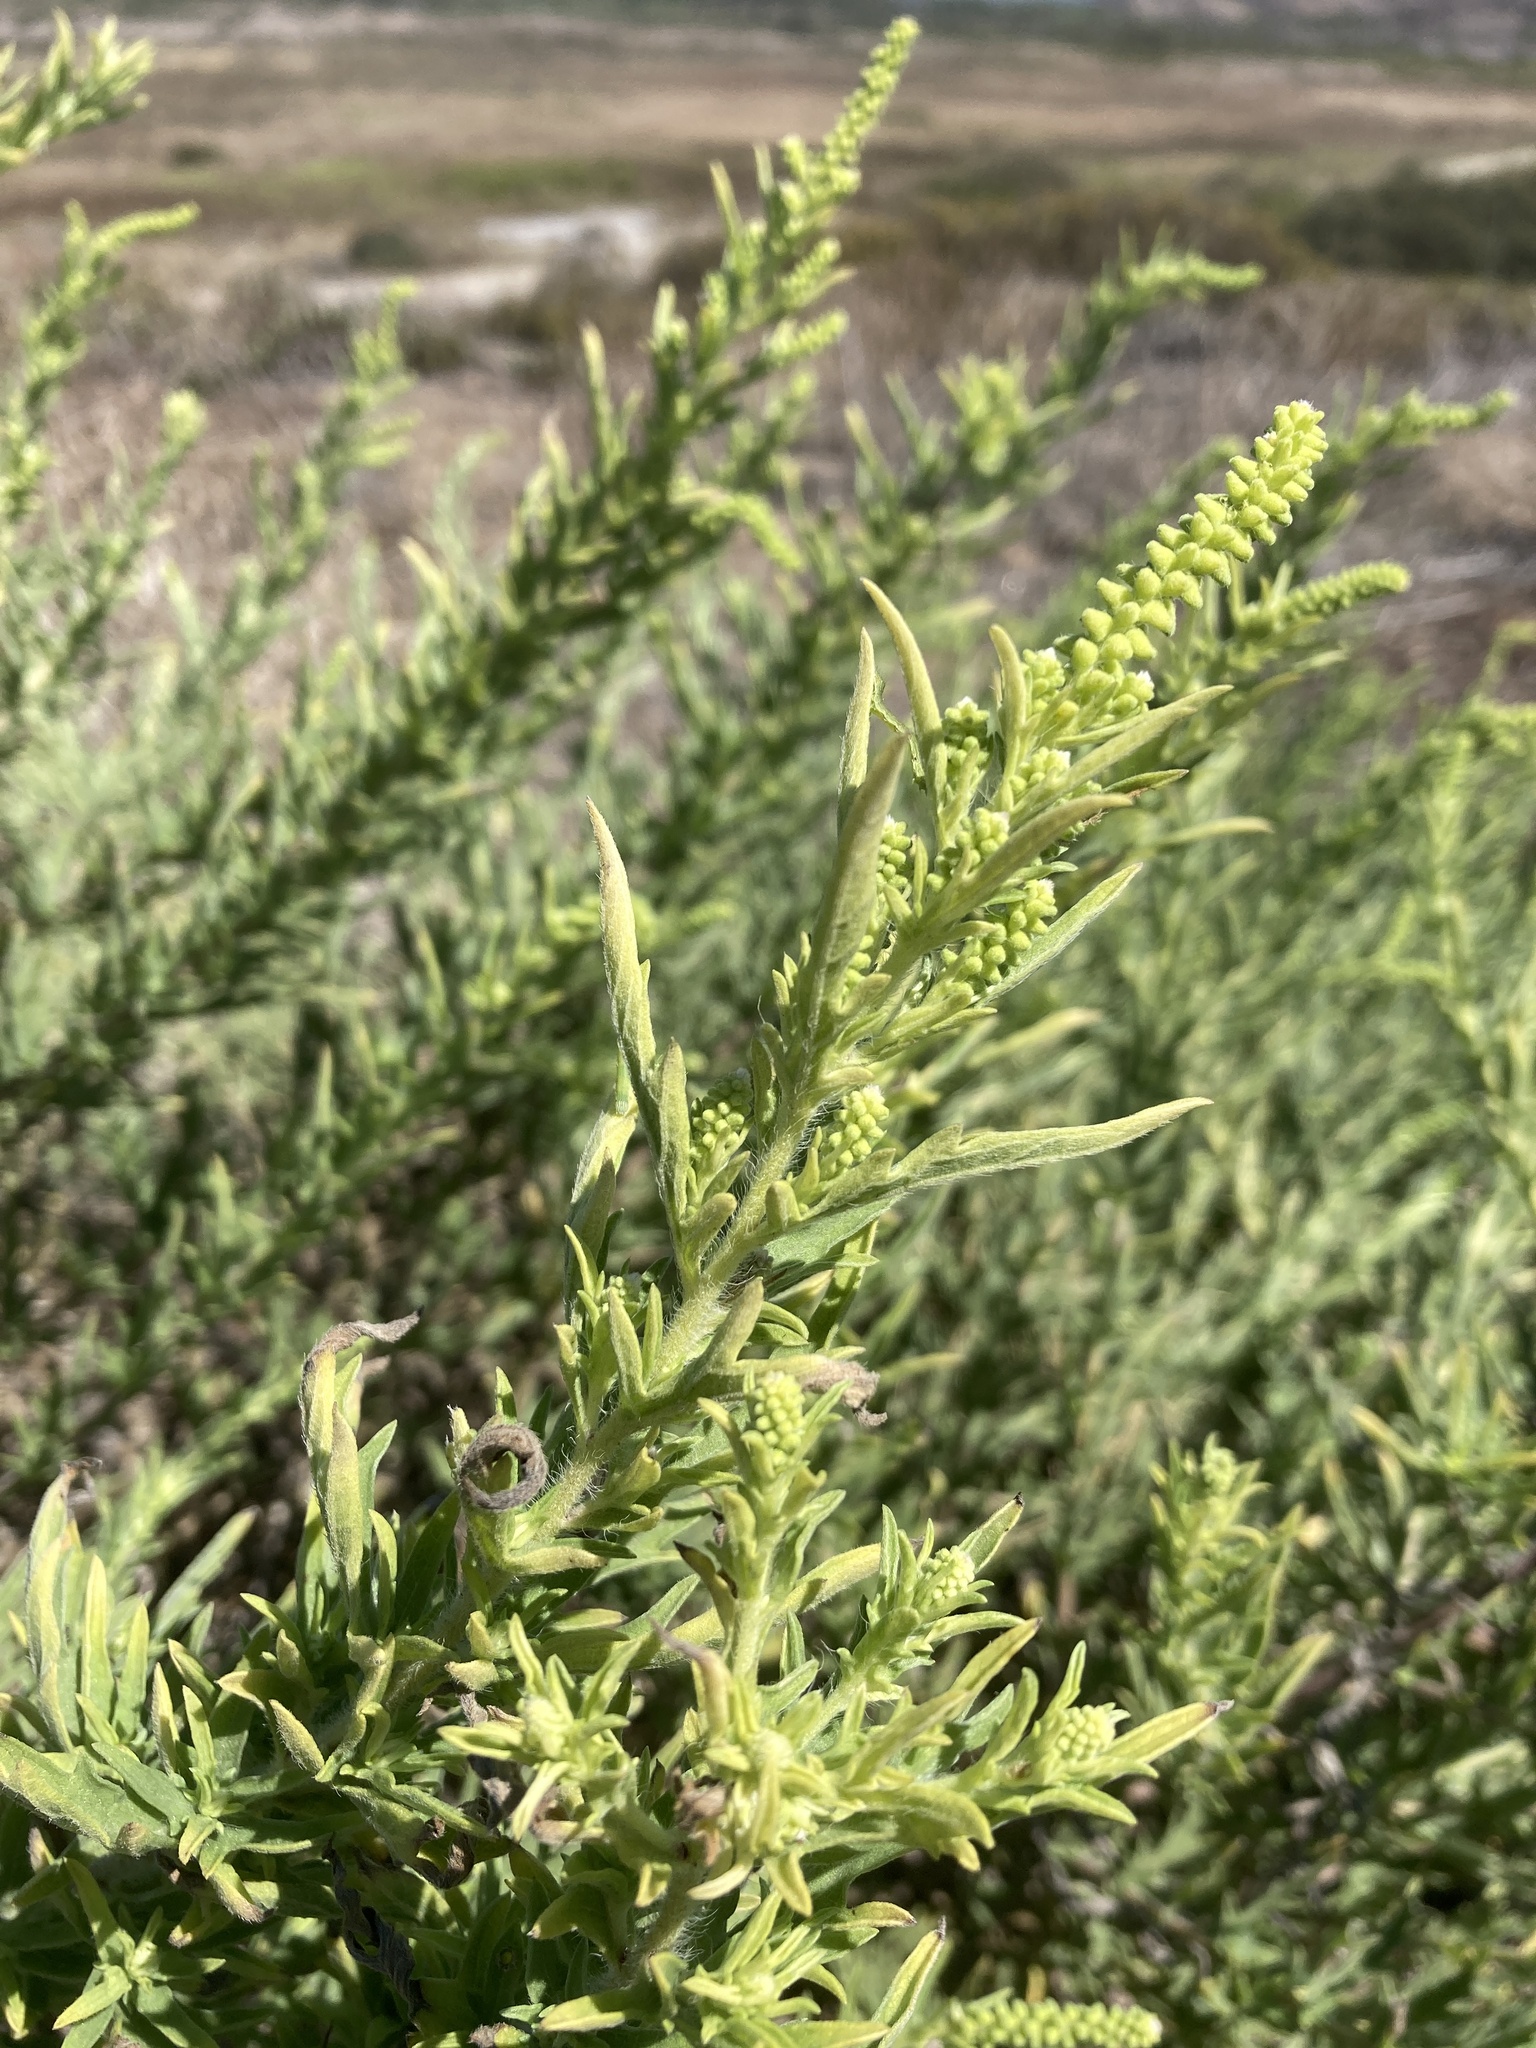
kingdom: Plantae
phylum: Tracheophyta
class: Magnoliopsida
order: Asterales
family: Asteraceae
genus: Ambrosia
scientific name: Ambrosia psilostachya
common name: Perennial ragweed
